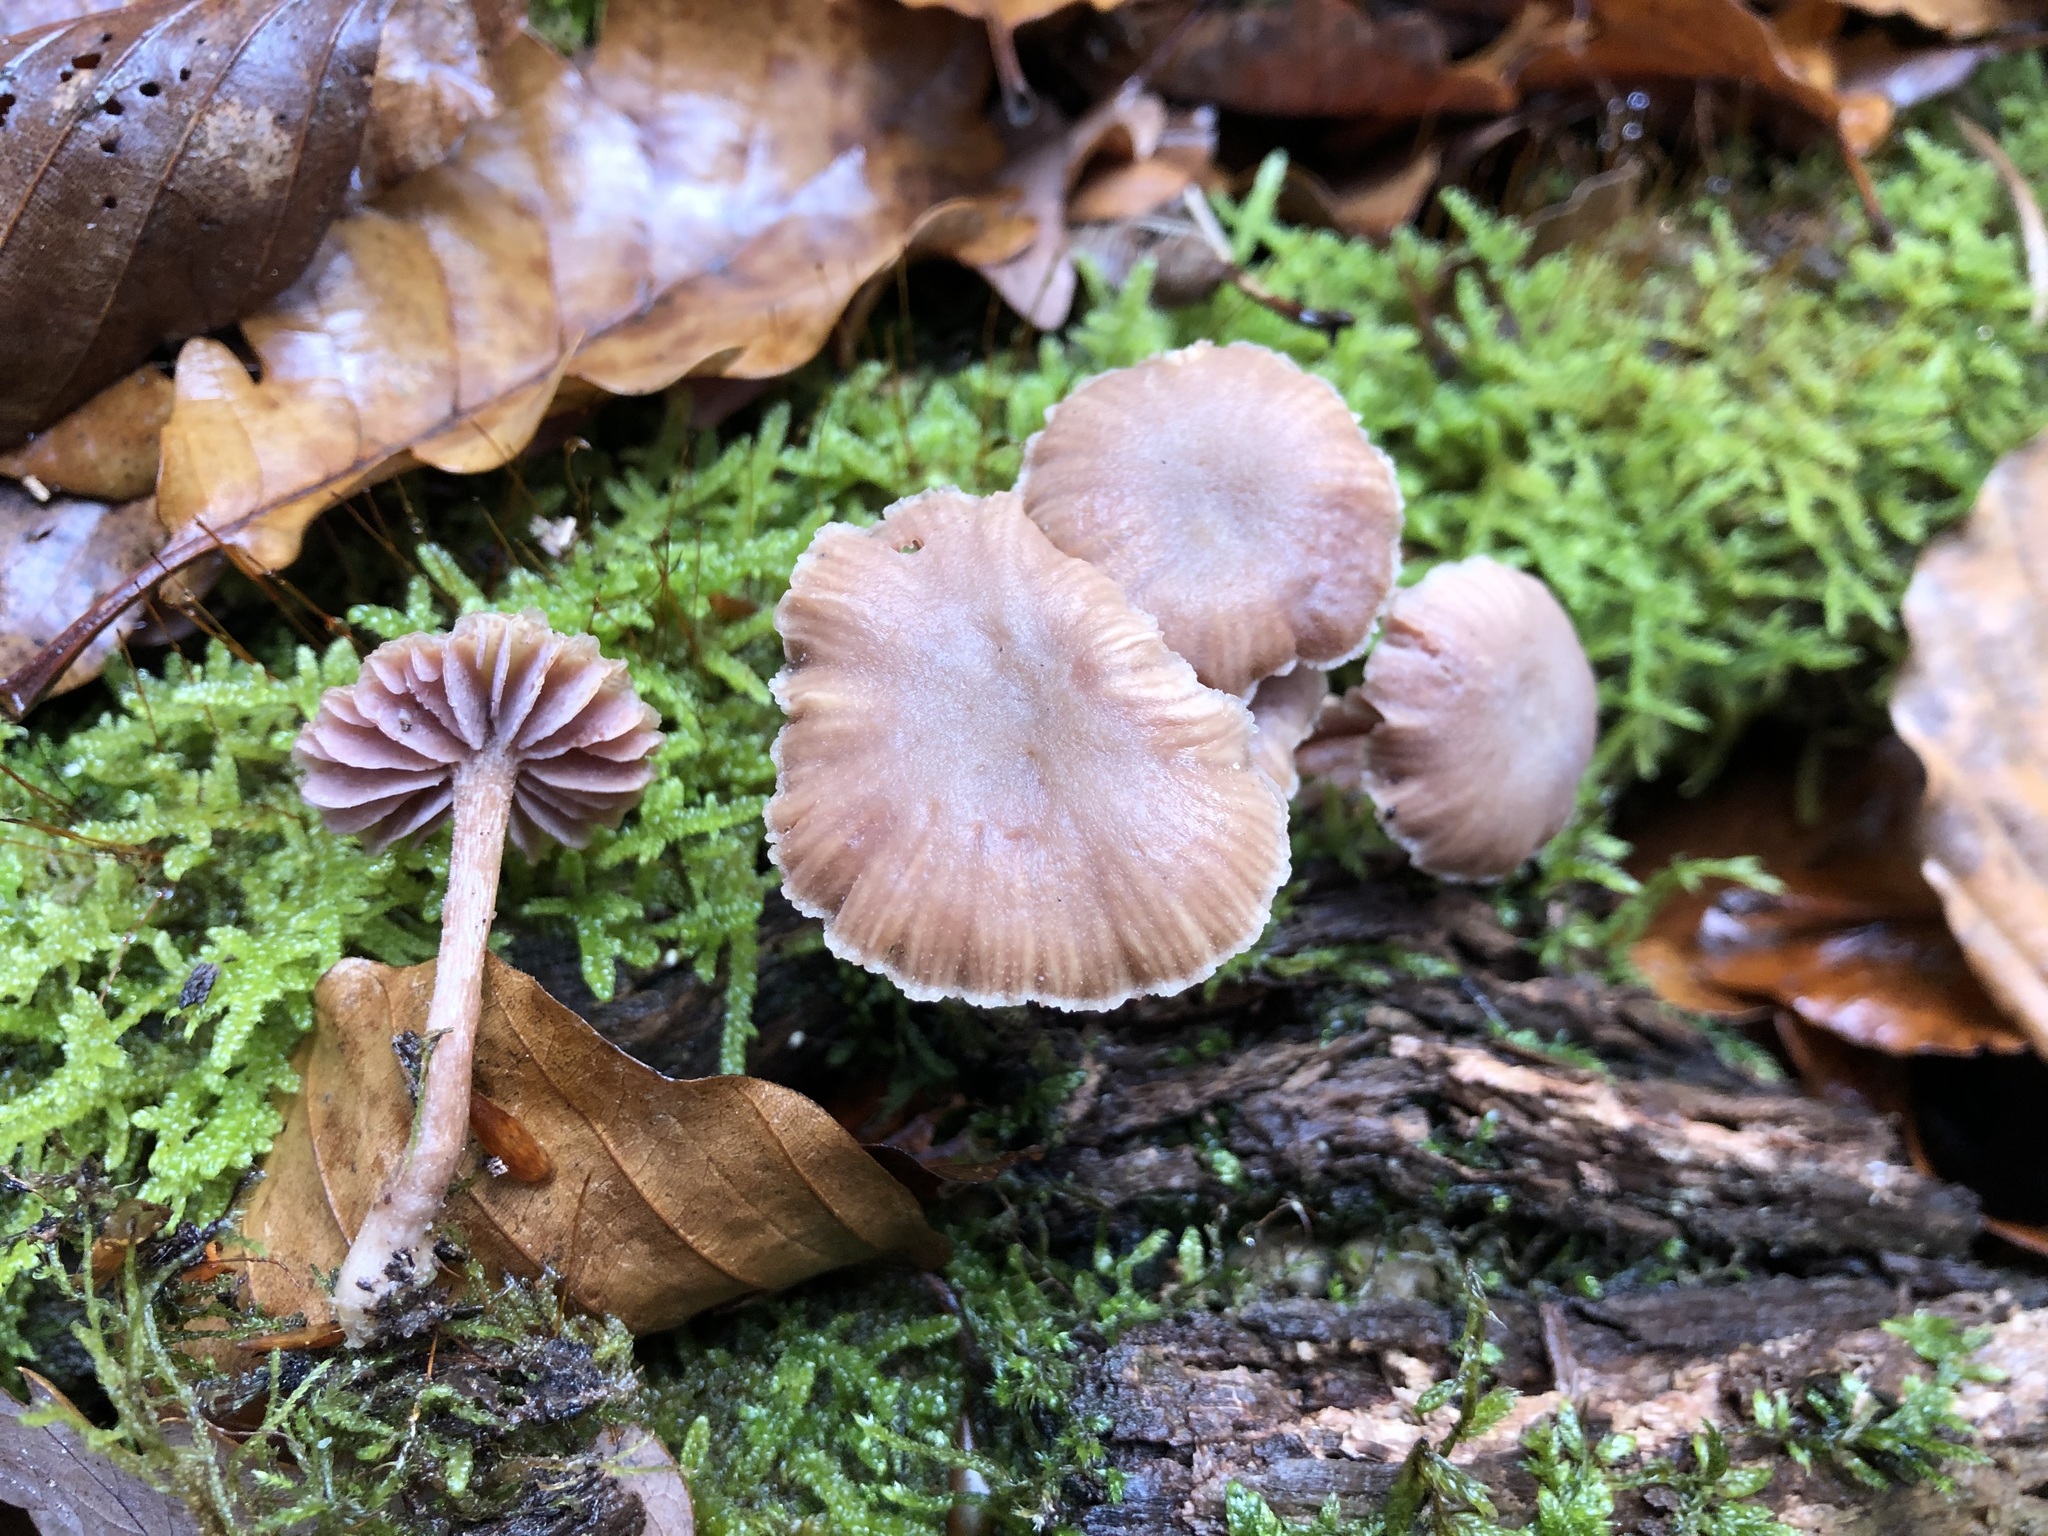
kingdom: Fungi
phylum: Basidiomycota
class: Agaricomycetes
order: Agaricales
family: Hydnangiaceae
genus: Laccaria
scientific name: Laccaria amethystina
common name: Amethyst deceiver
